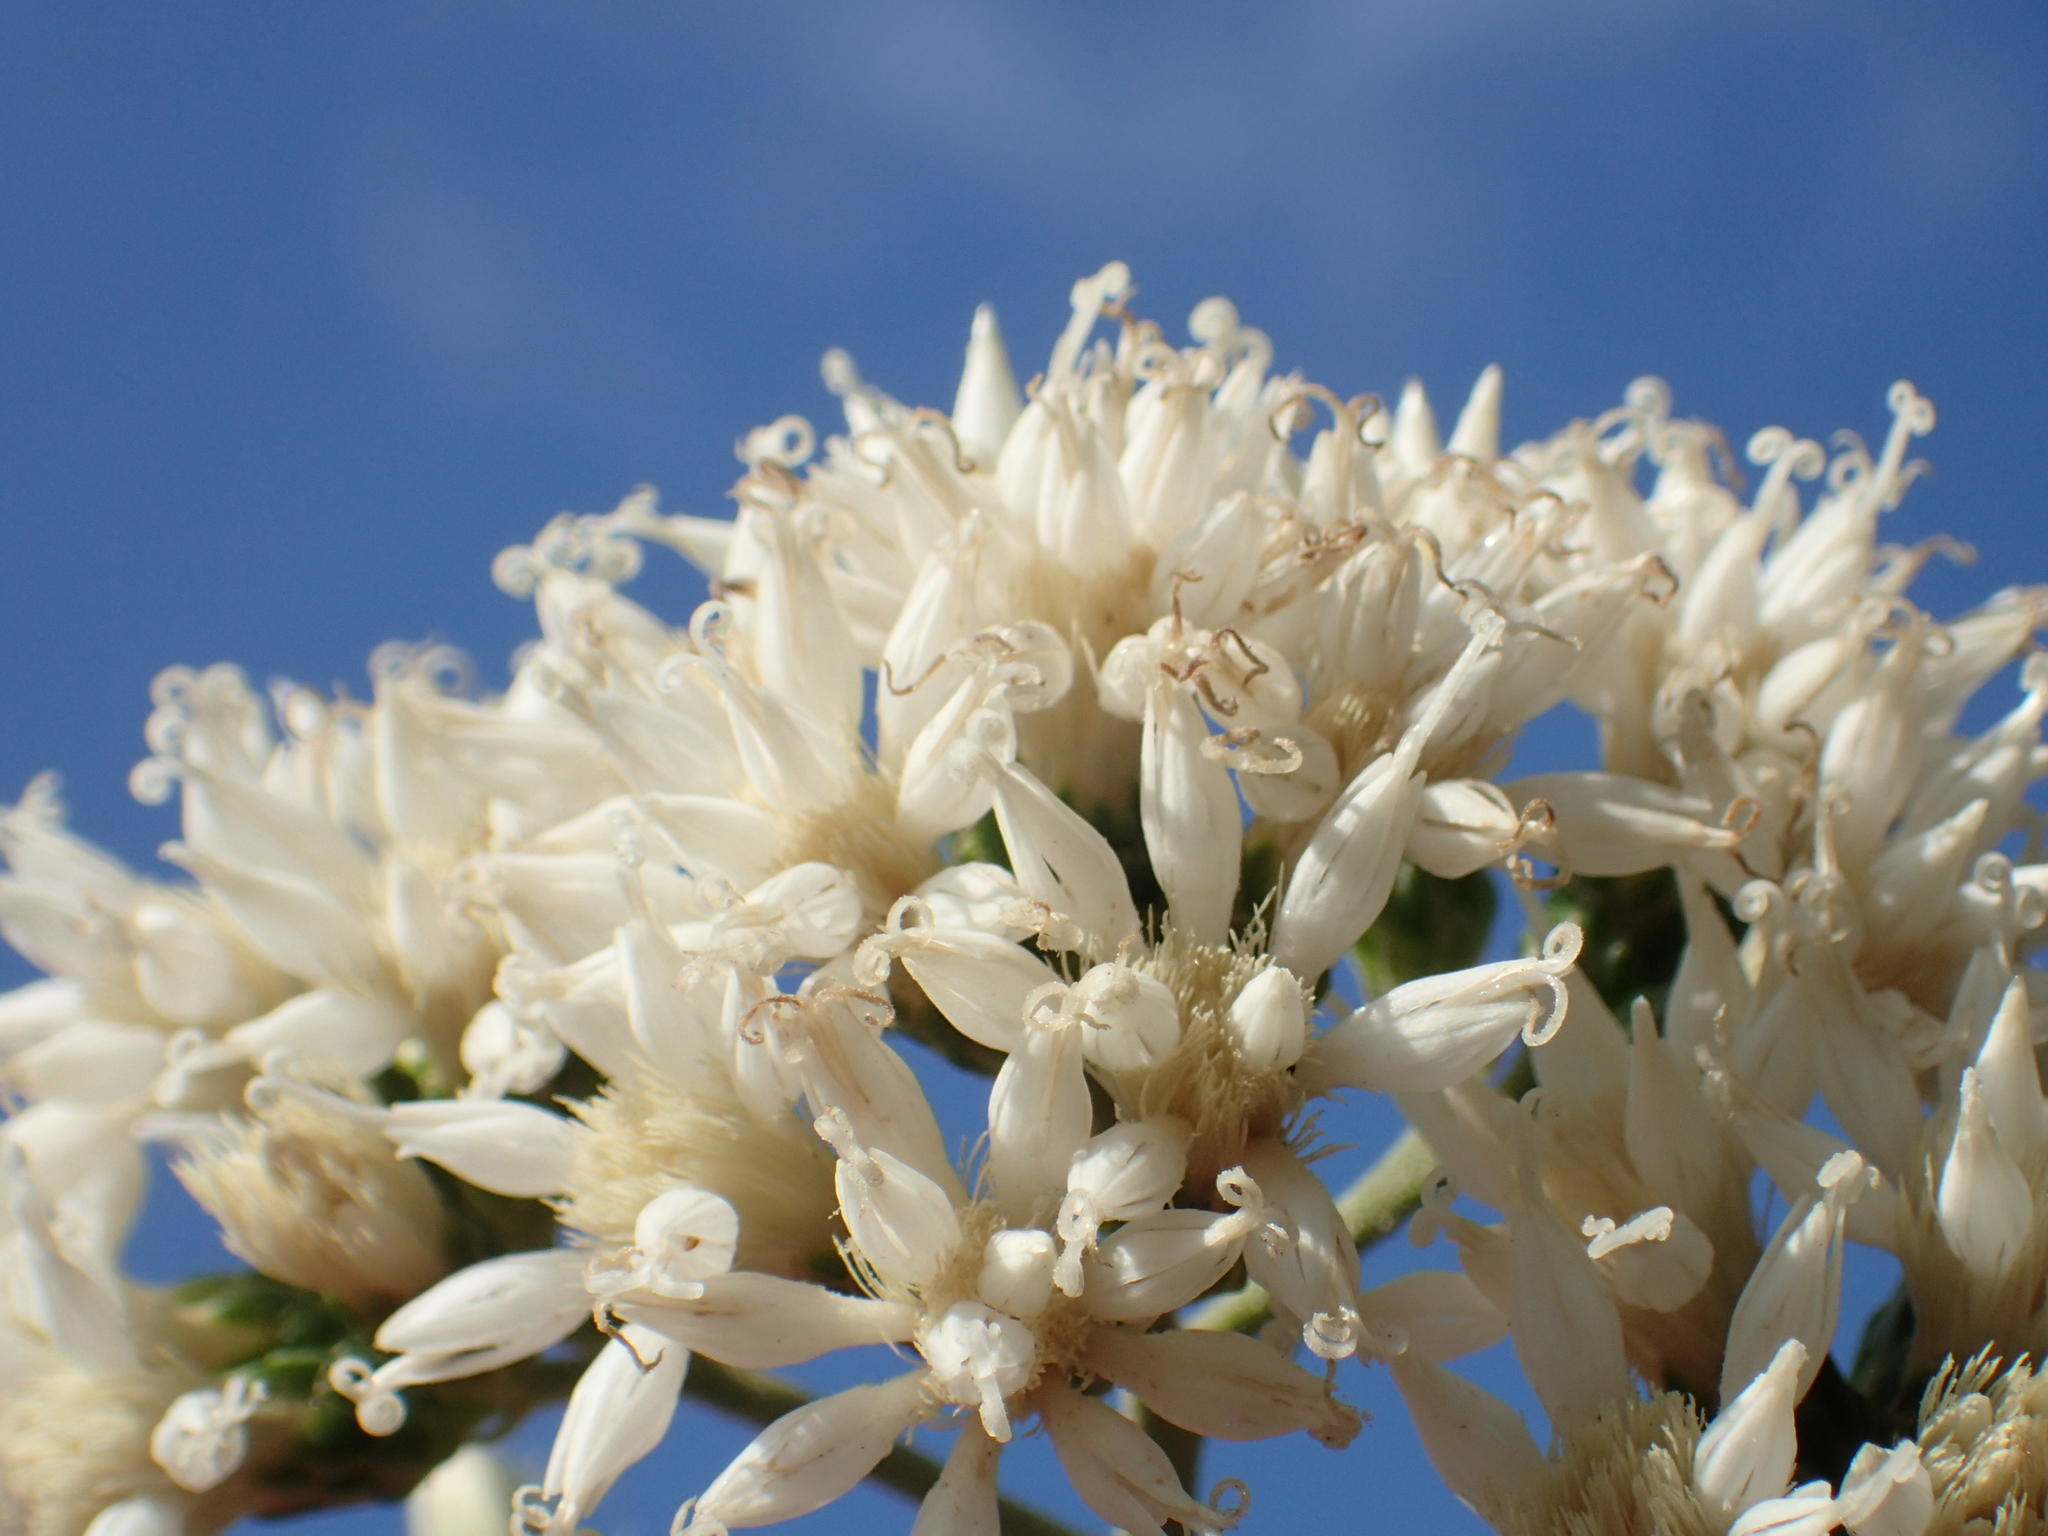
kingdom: Plantae
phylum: Tracheophyta
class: Magnoliopsida
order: Asterales
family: Asteraceae
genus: Gymnanthemum
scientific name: Gymnanthemum amygdalinum
